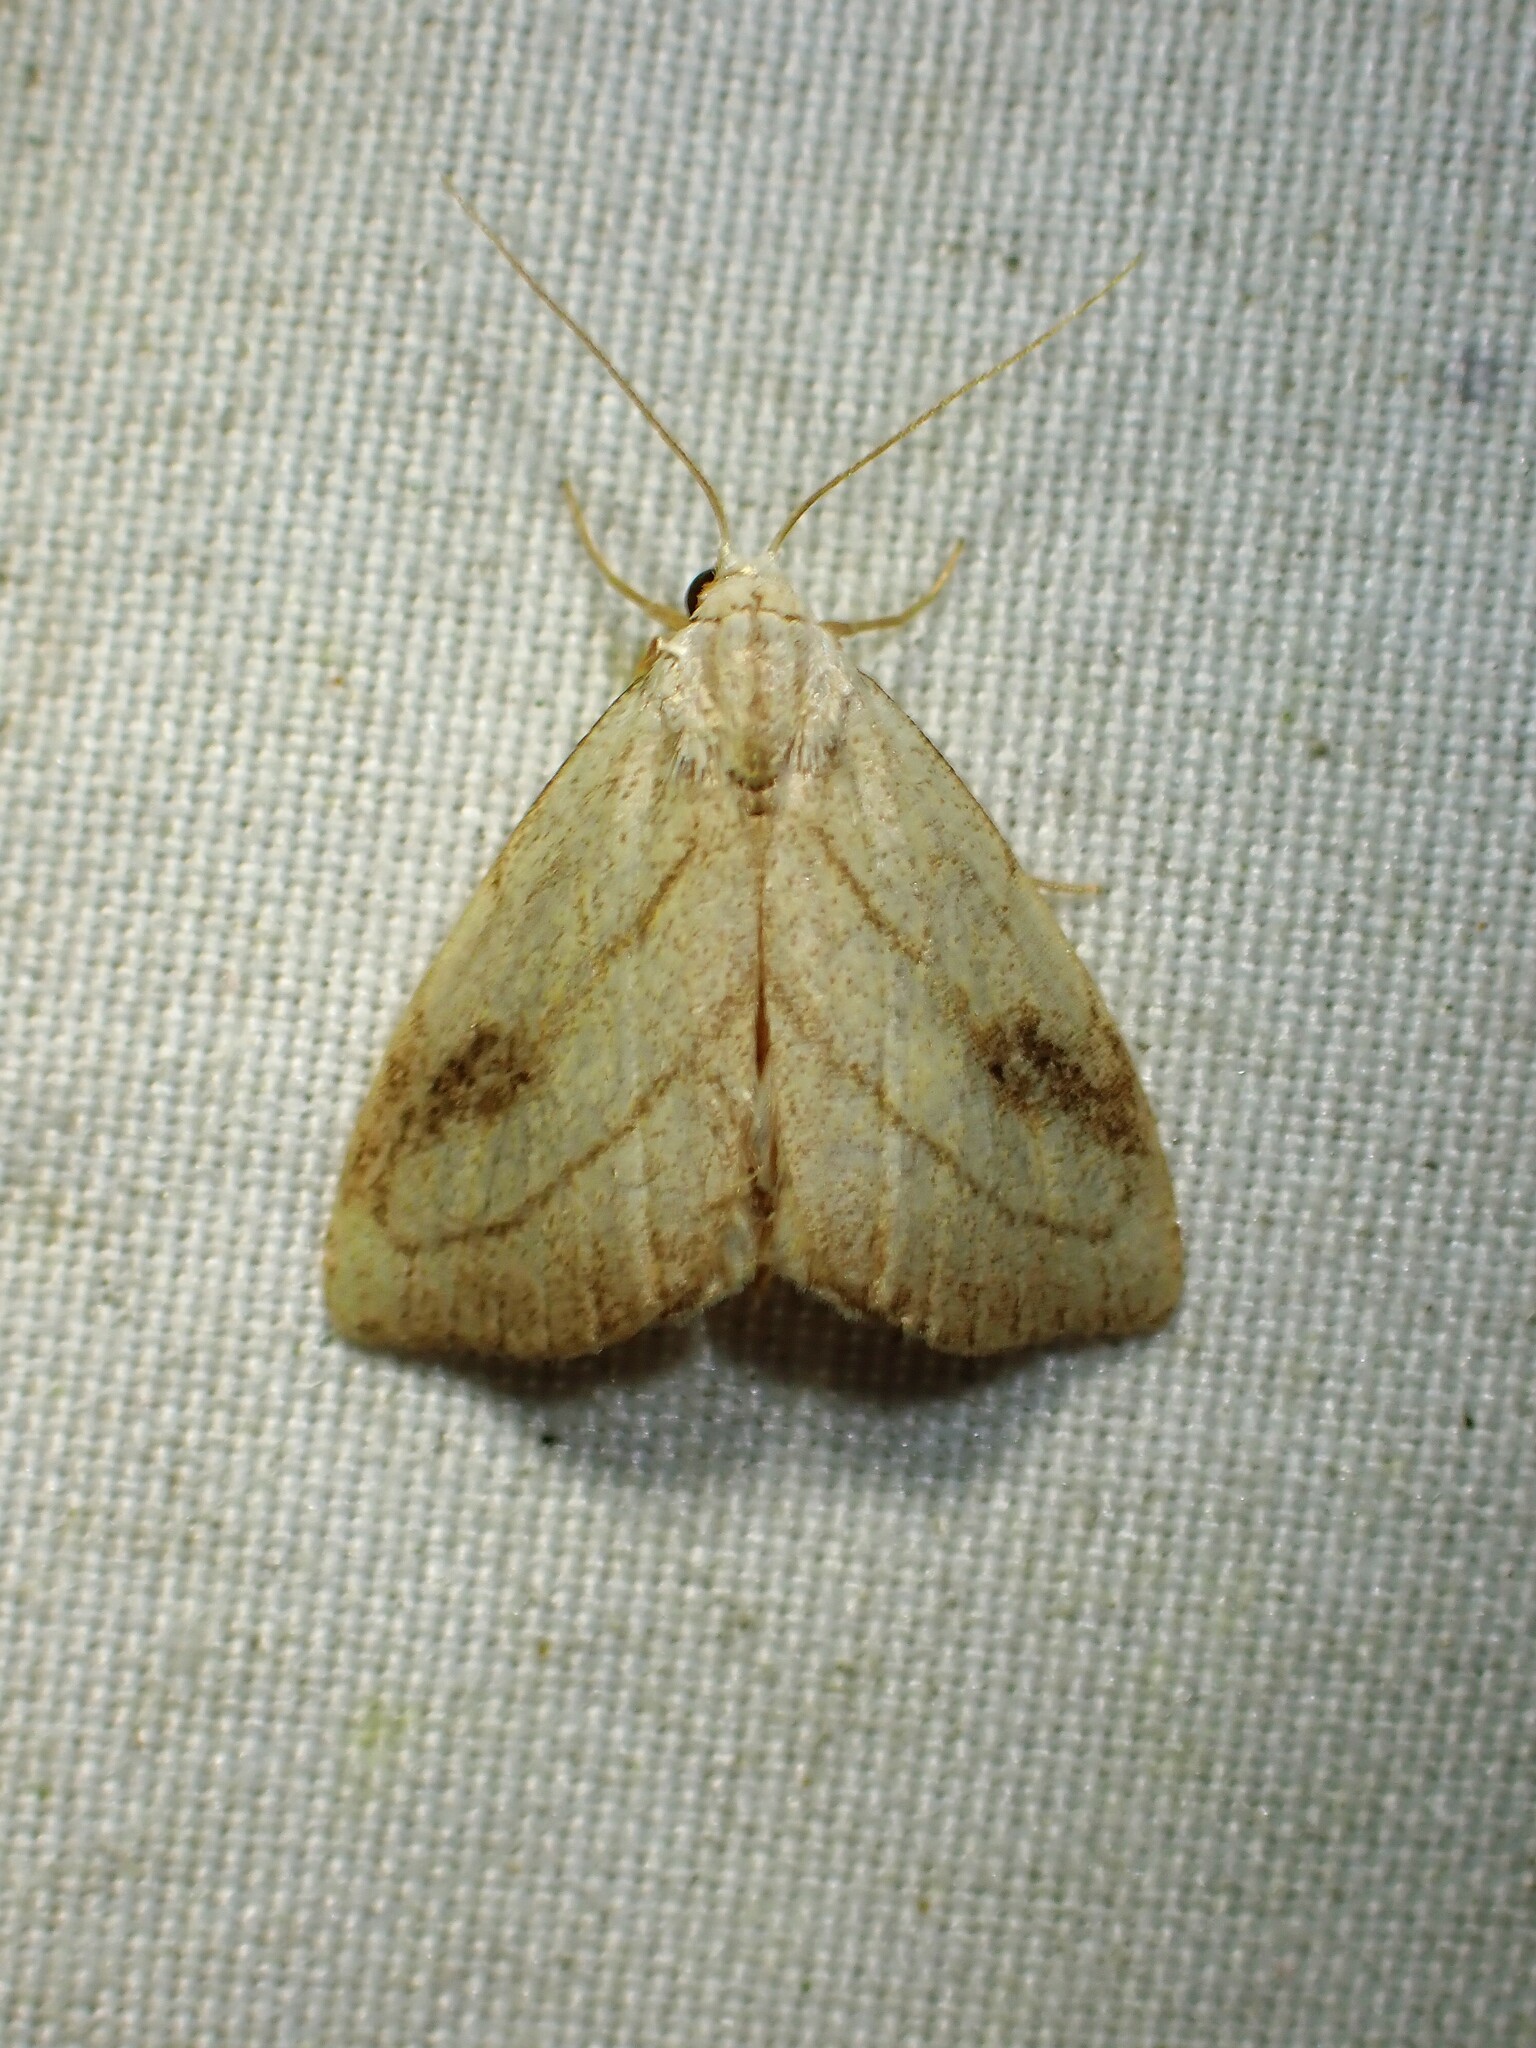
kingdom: Animalia
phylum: Arthropoda
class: Insecta
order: Lepidoptera
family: Erebidae
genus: Rivula
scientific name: Rivula propinqualis
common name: Spotted grass moth
